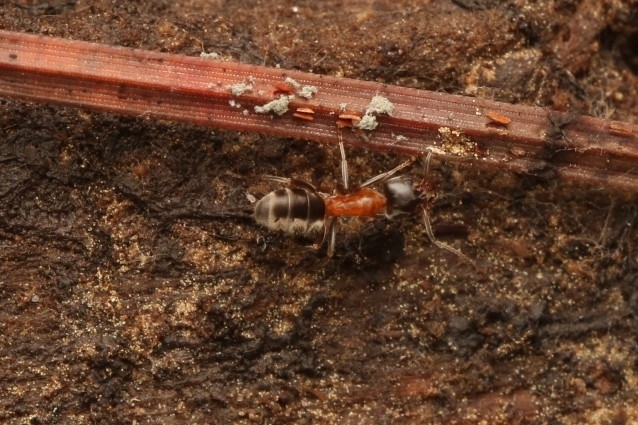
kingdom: Animalia
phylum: Arthropoda
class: Insecta
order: Hymenoptera
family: Formicidae
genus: Liometopum
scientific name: Liometopum occidentale
